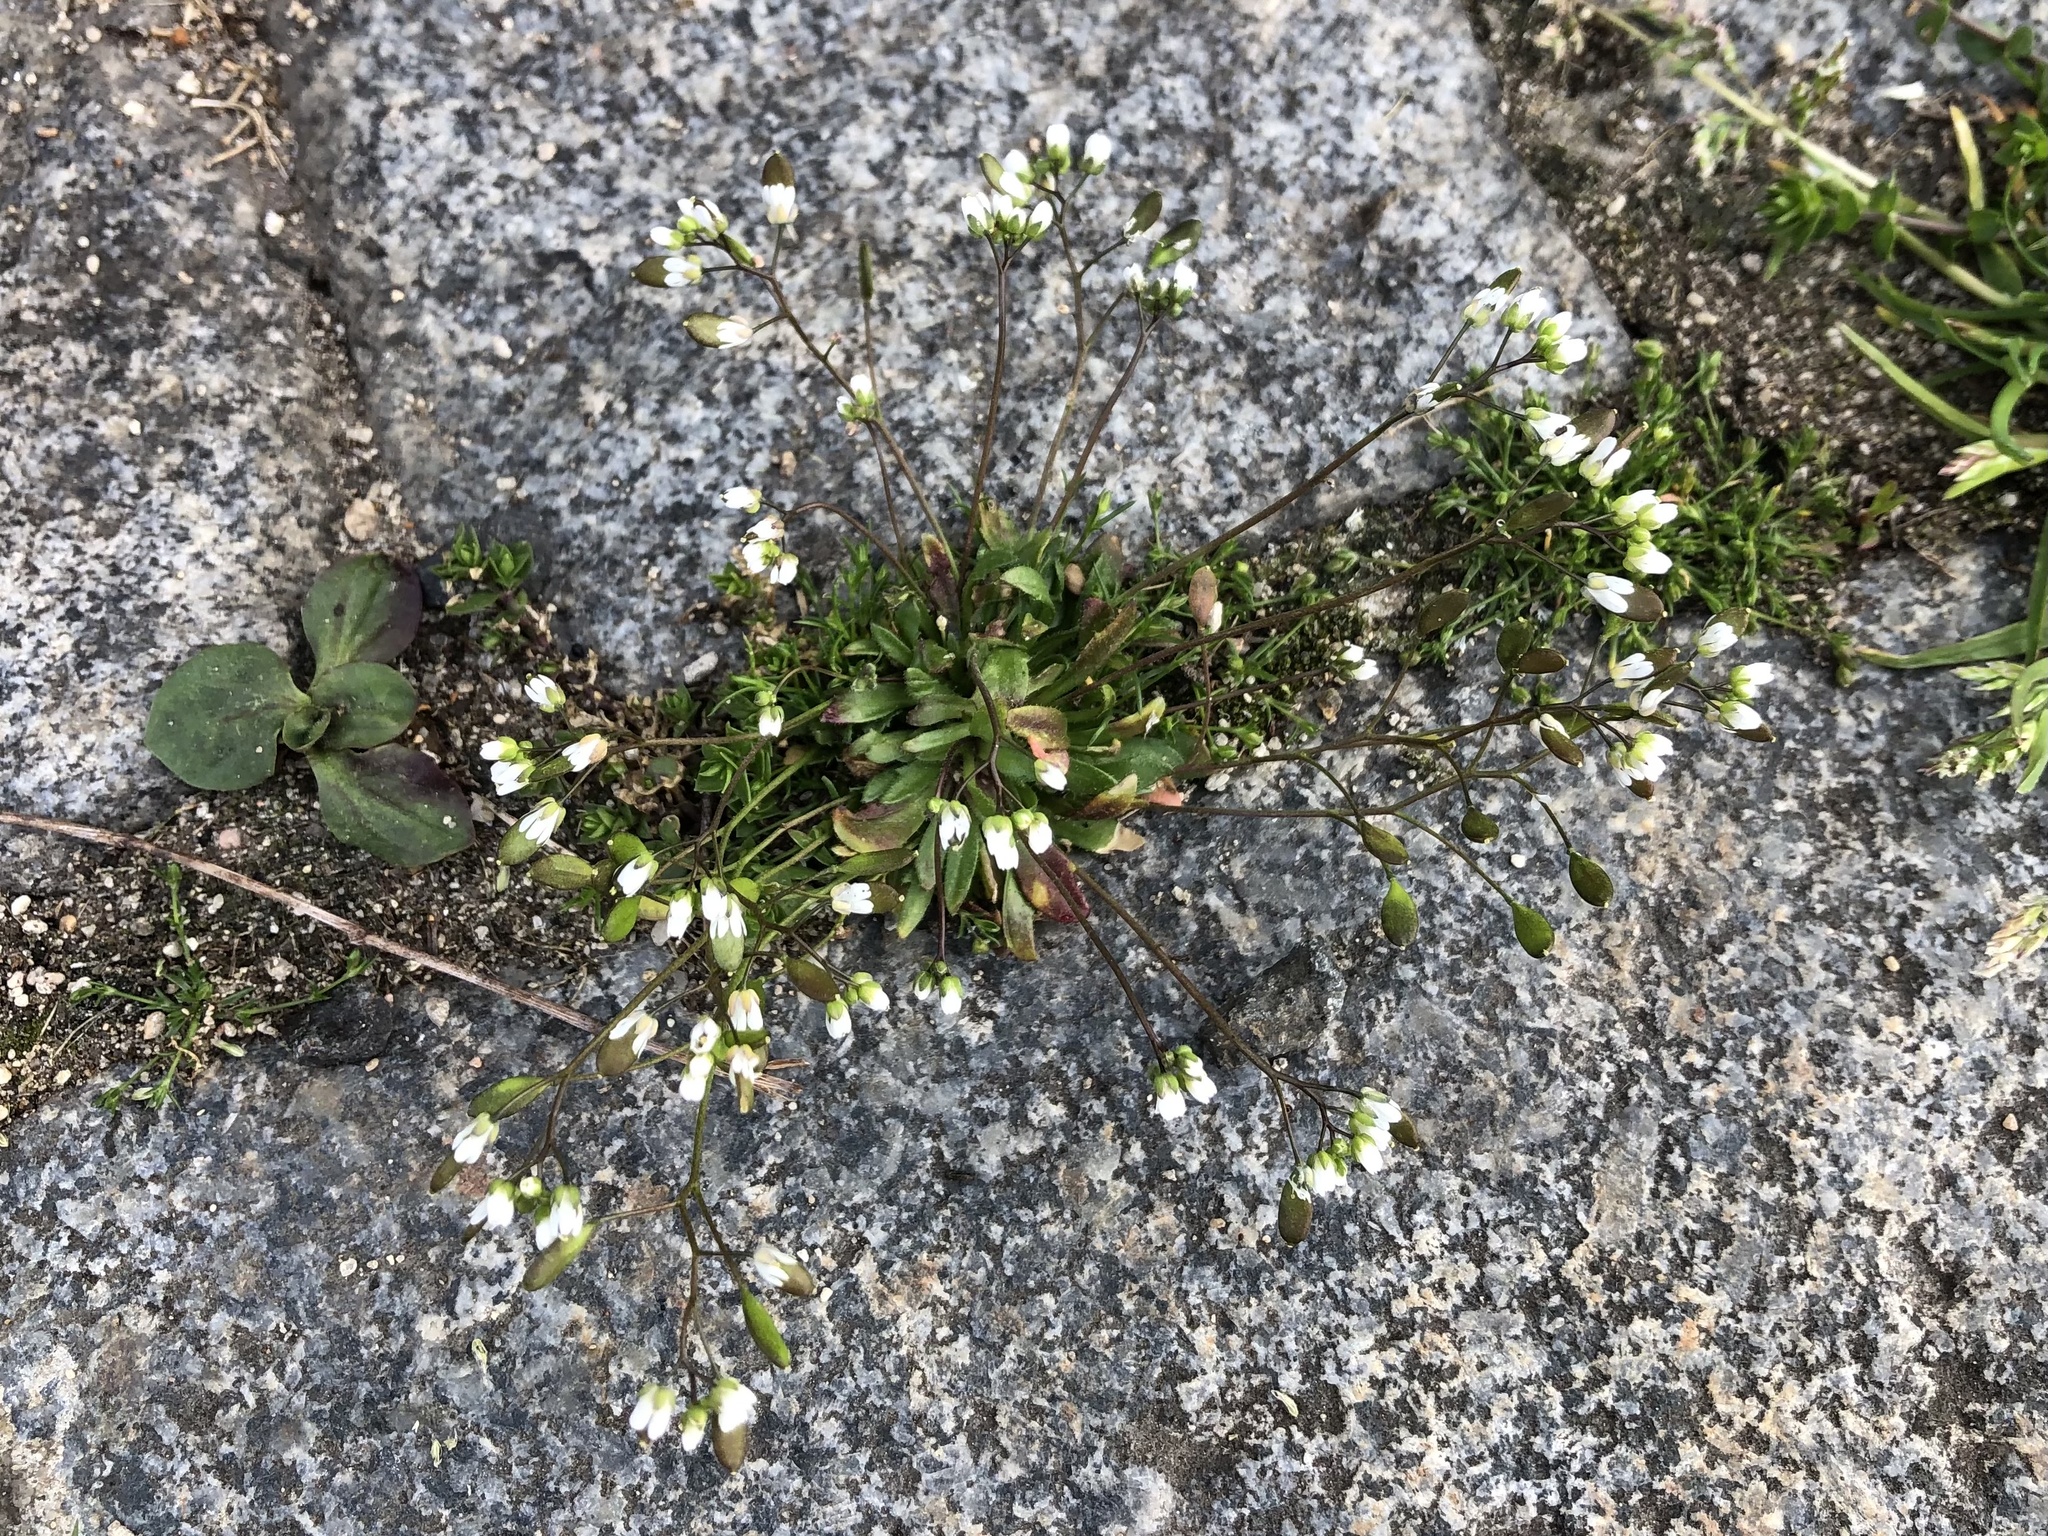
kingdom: Plantae
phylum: Tracheophyta
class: Magnoliopsida
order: Brassicales
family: Brassicaceae
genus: Draba
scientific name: Draba verna
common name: Spring draba
